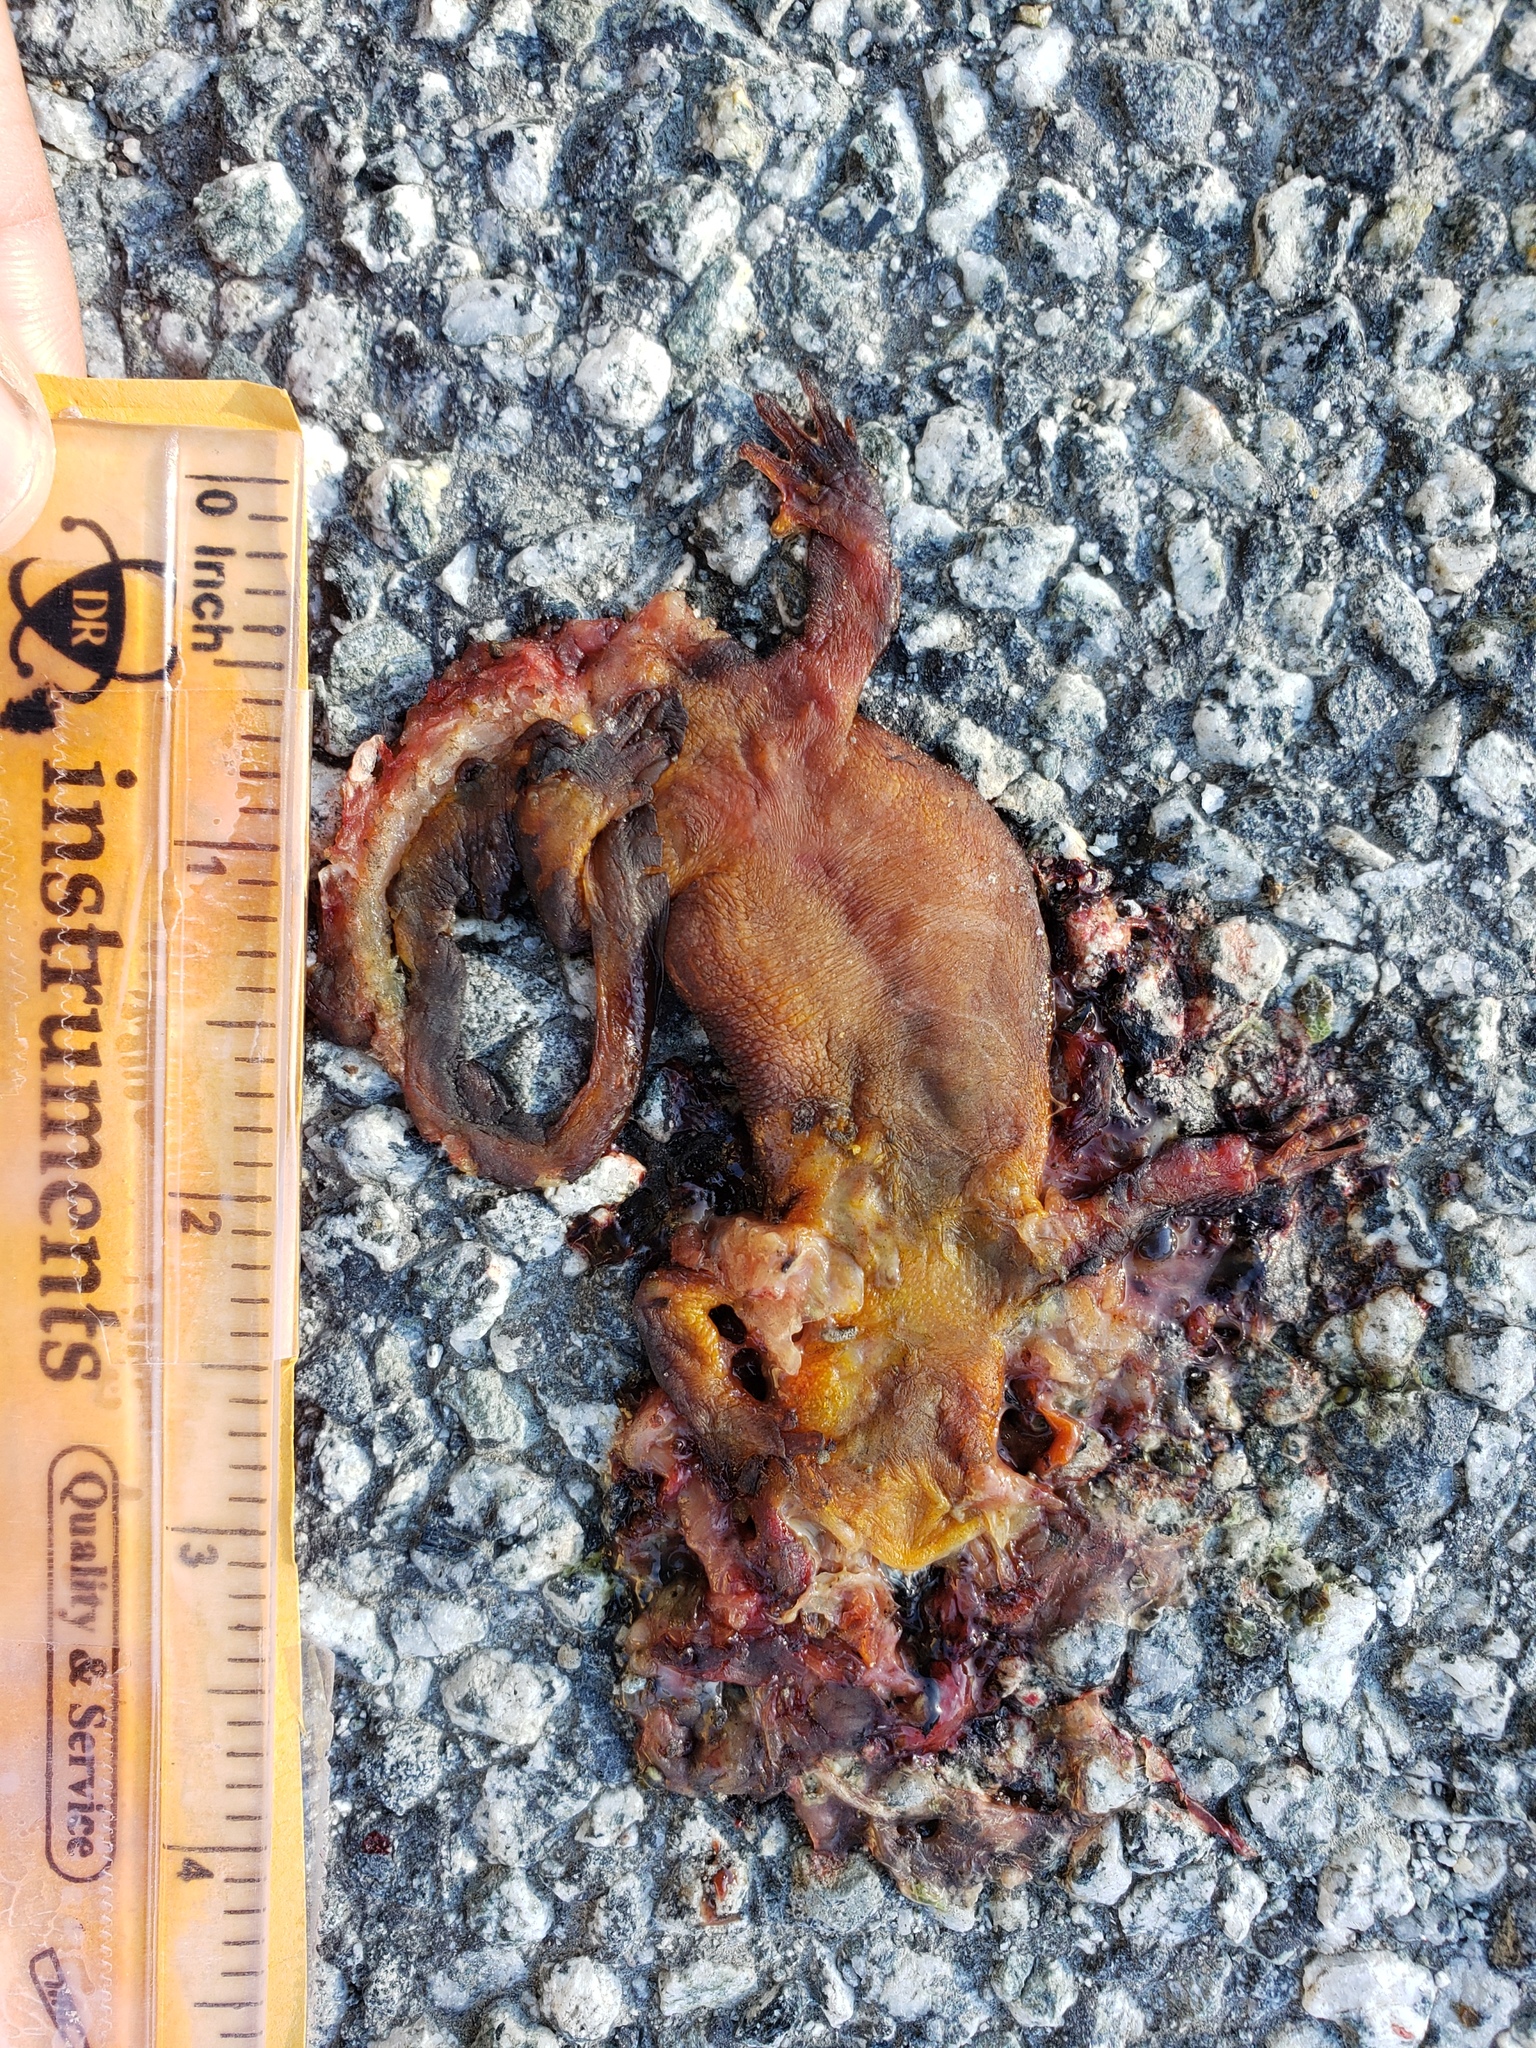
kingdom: Animalia
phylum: Chordata
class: Amphibia
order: Caudata
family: Salamandridae
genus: Taricha
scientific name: Taricha
